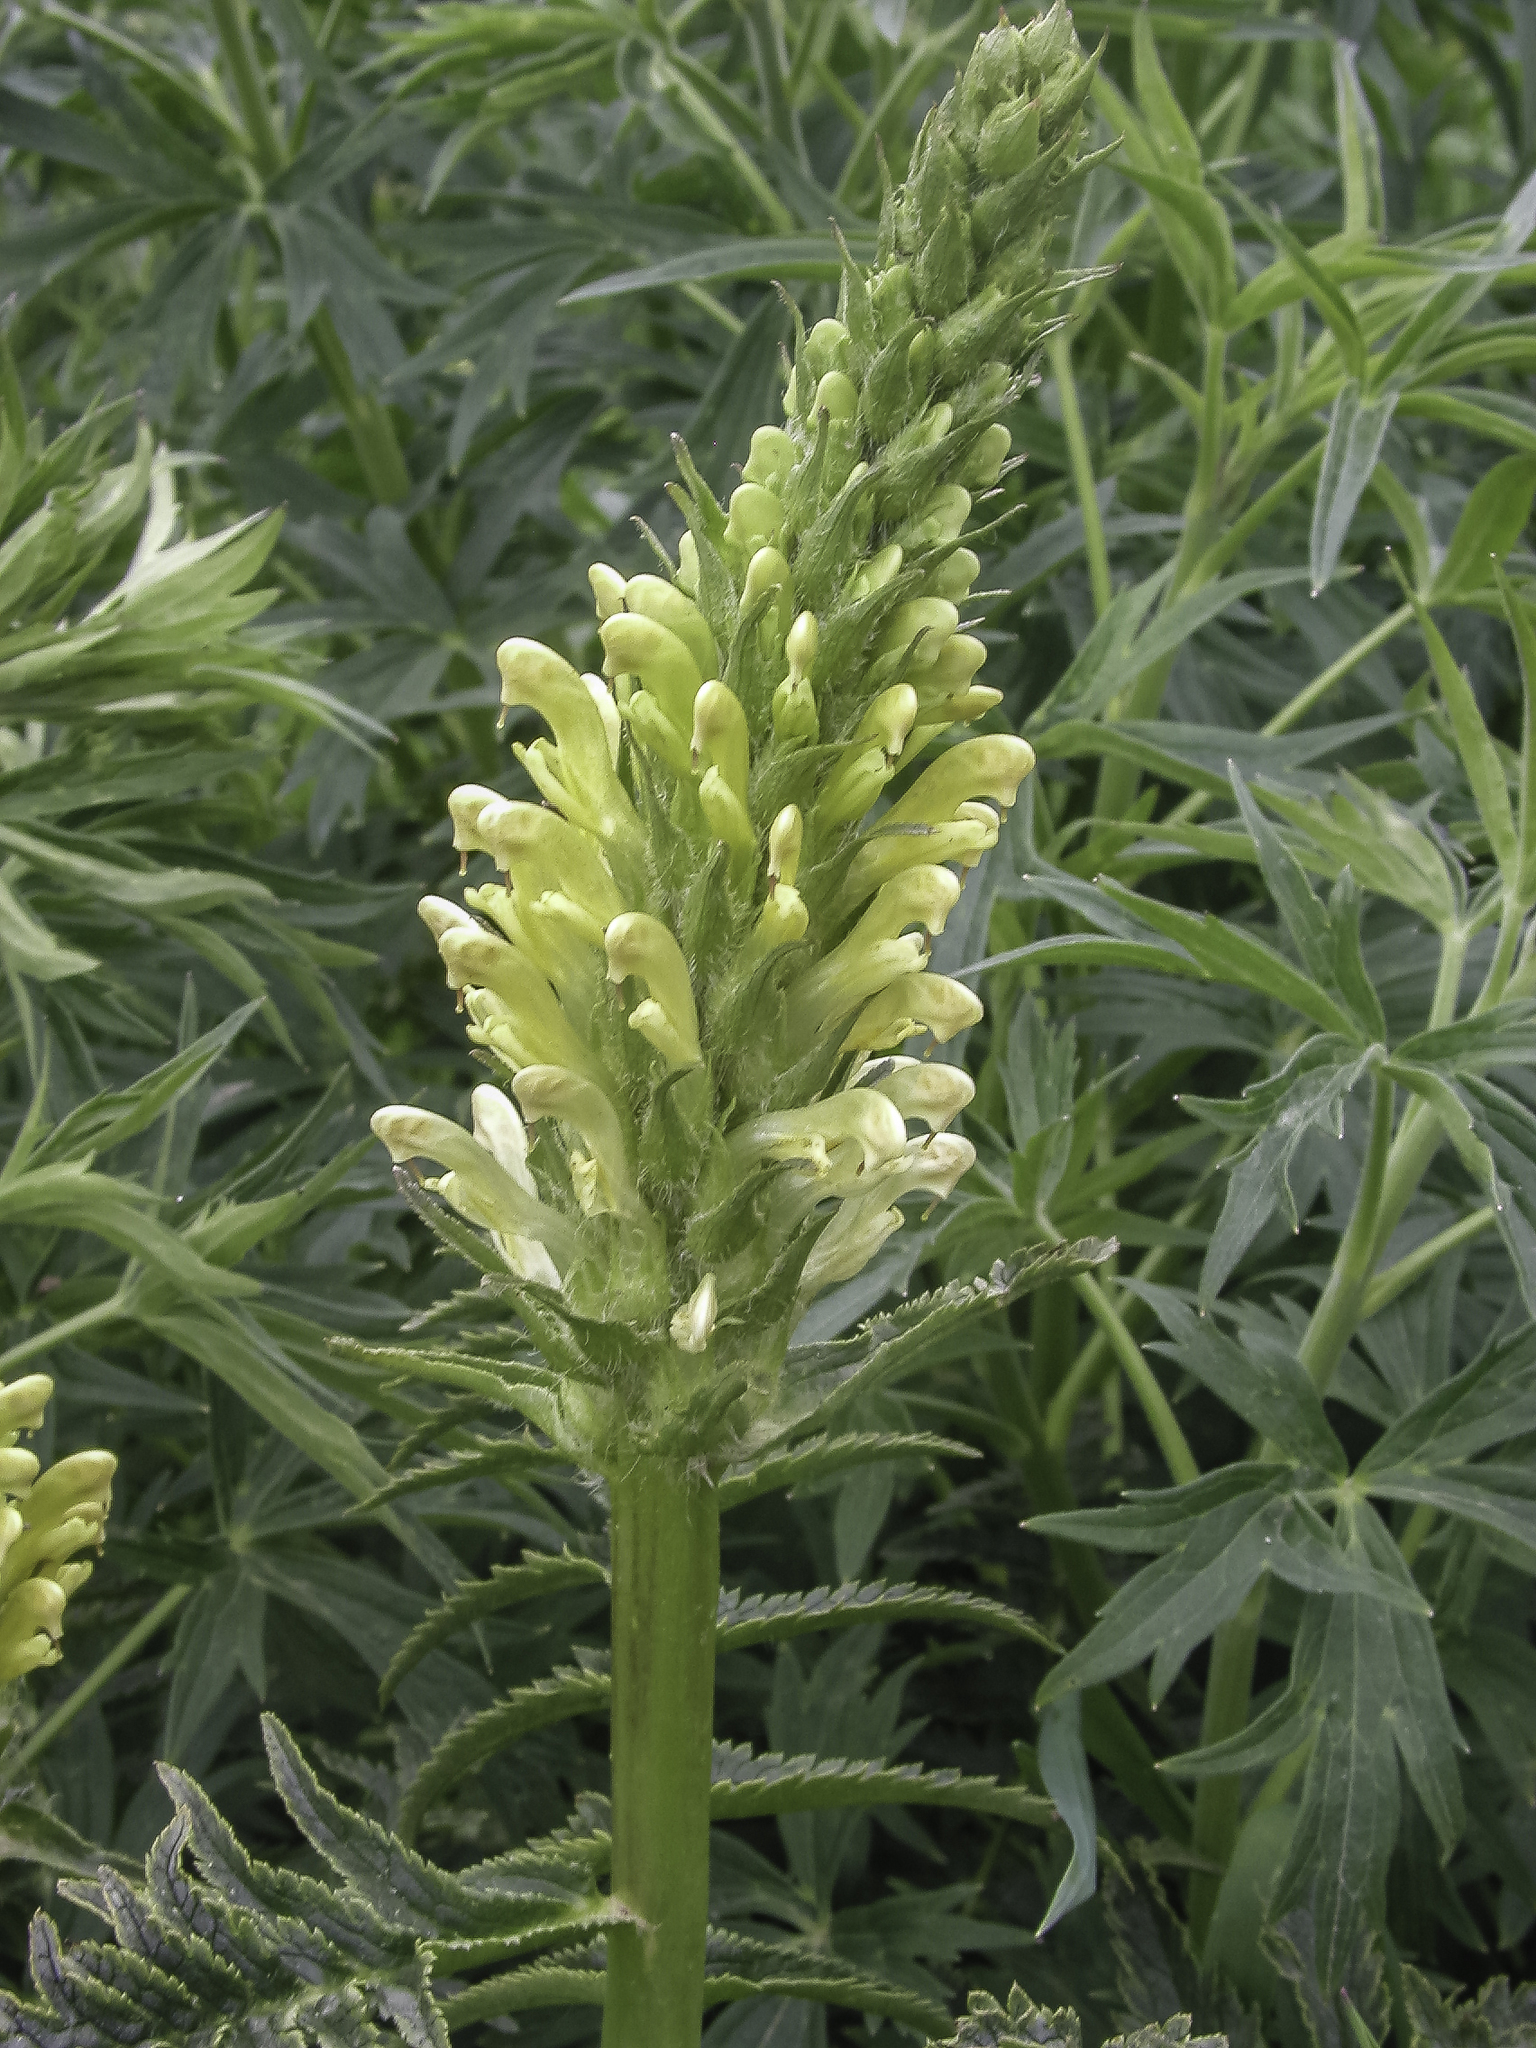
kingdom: Plantae
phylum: Tracheophyta
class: Magnoliopsida
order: Lamiales
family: Orobanchaceae
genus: Pedicularis
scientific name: Pedicularis bracteosa
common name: Bracted lousewort
